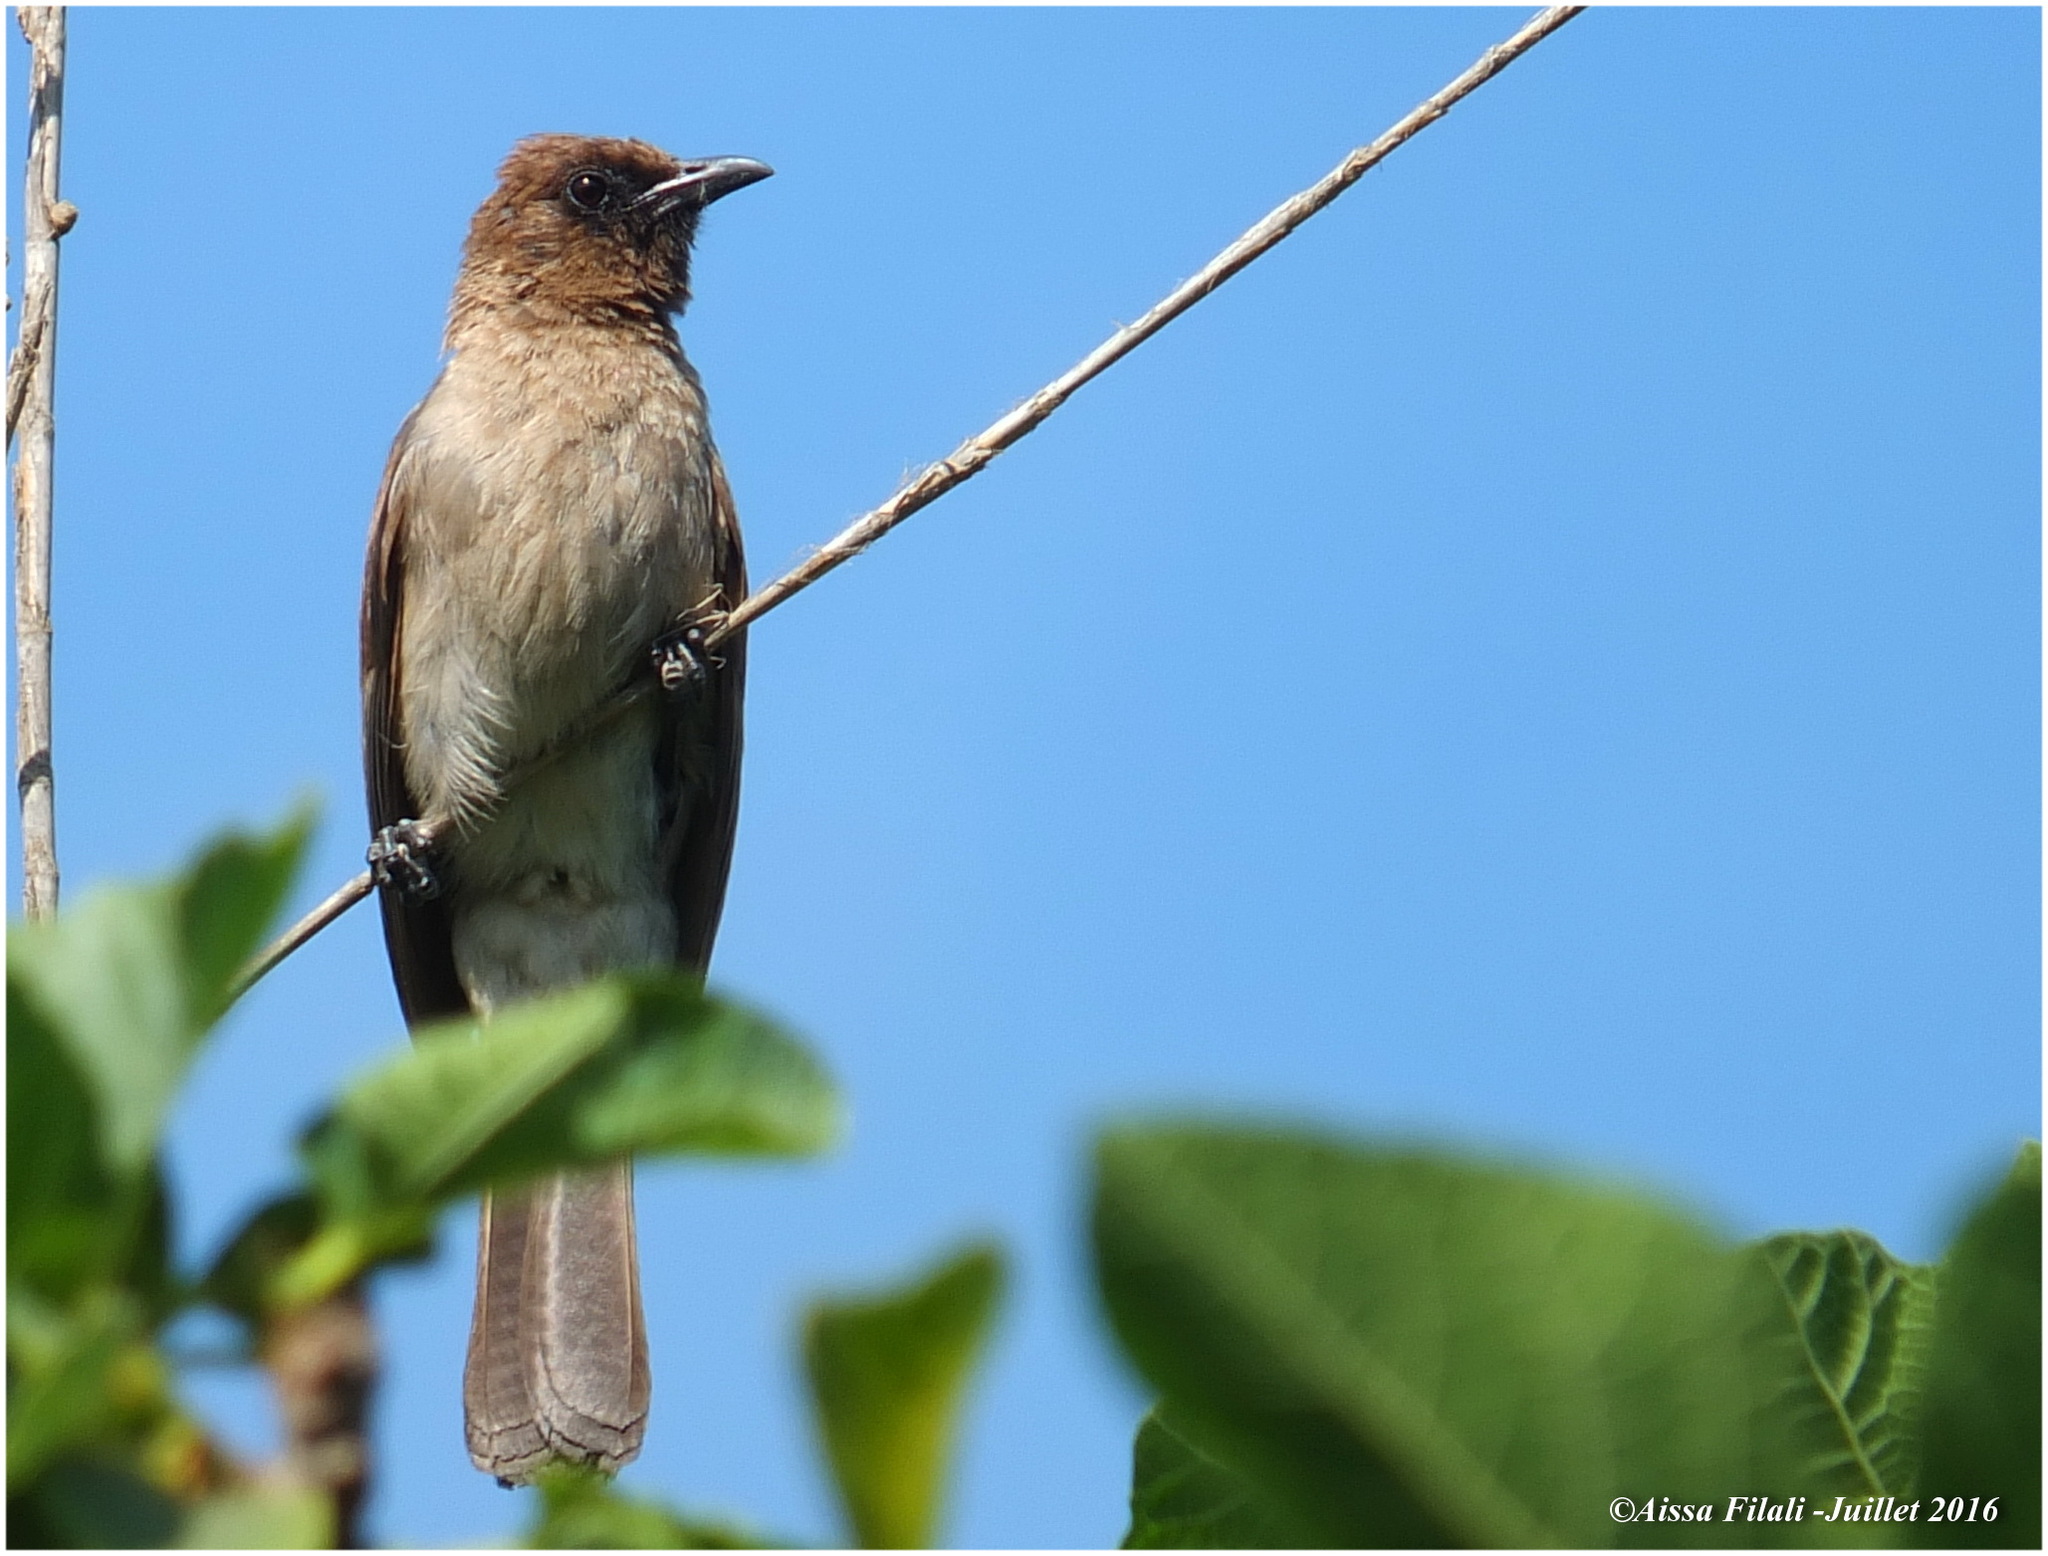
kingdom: Animalia
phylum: Chordata
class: Aves
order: Passeriformes
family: Pycnonotidae
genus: Pycnonotus
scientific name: Pycnonotus barbatus
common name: Common bulbul
